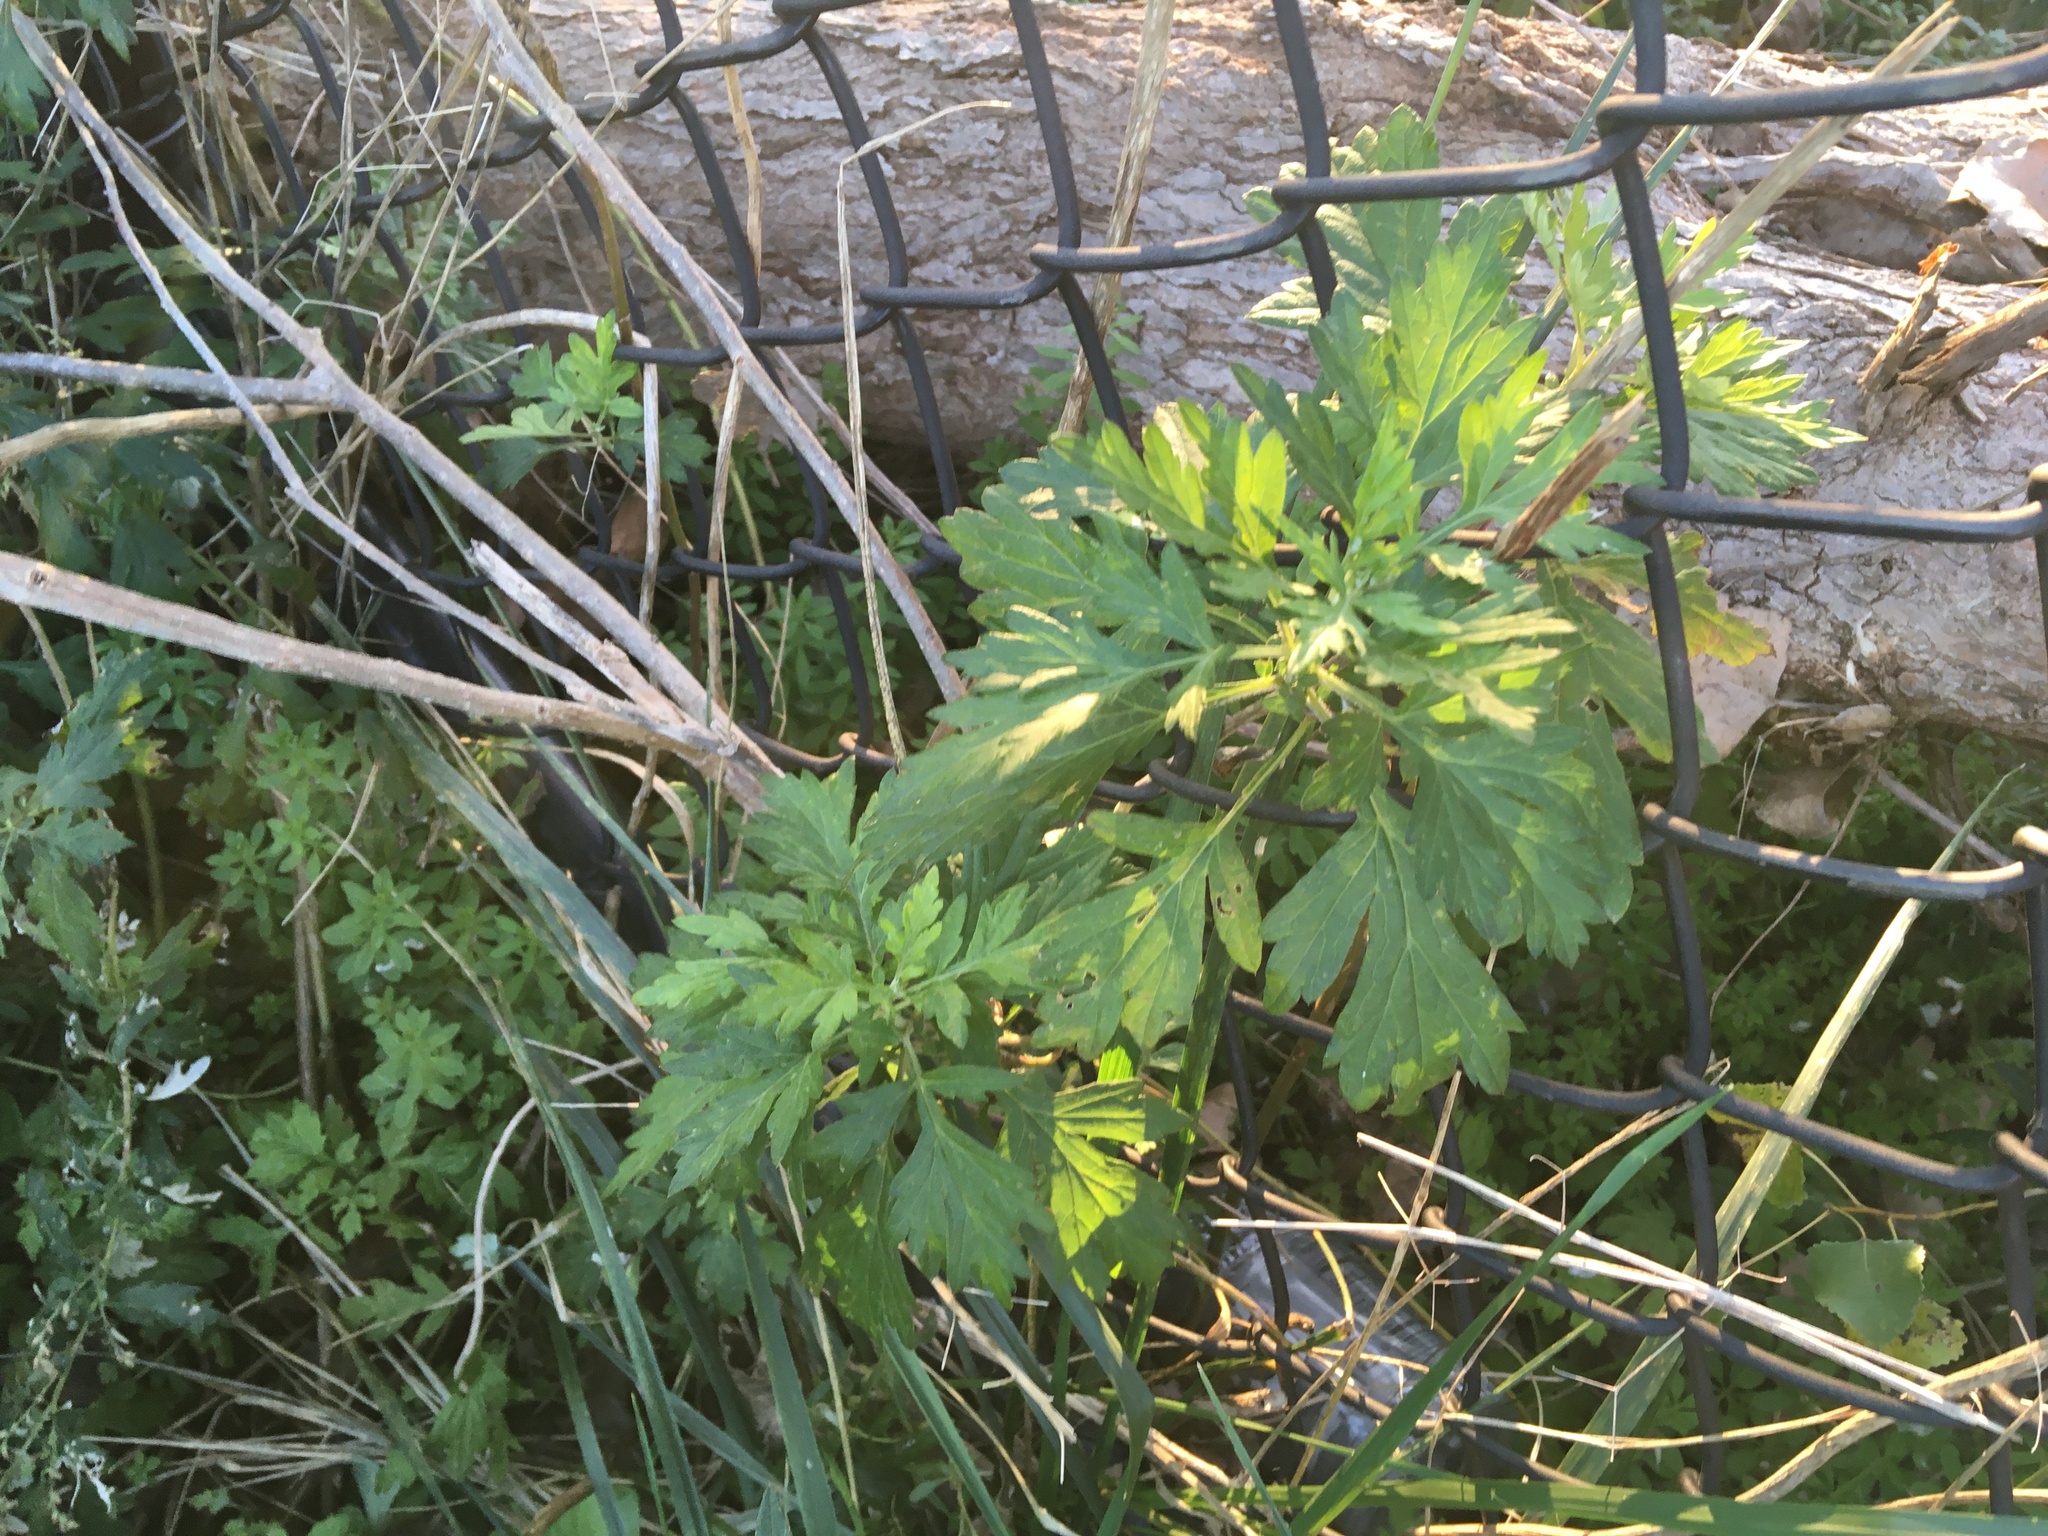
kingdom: Plantae
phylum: Tracheophyta
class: Magnoliopsida
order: Asterales
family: Asteraceae
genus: Artemisia
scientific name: Artemisia vulgaris
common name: Mugwort
